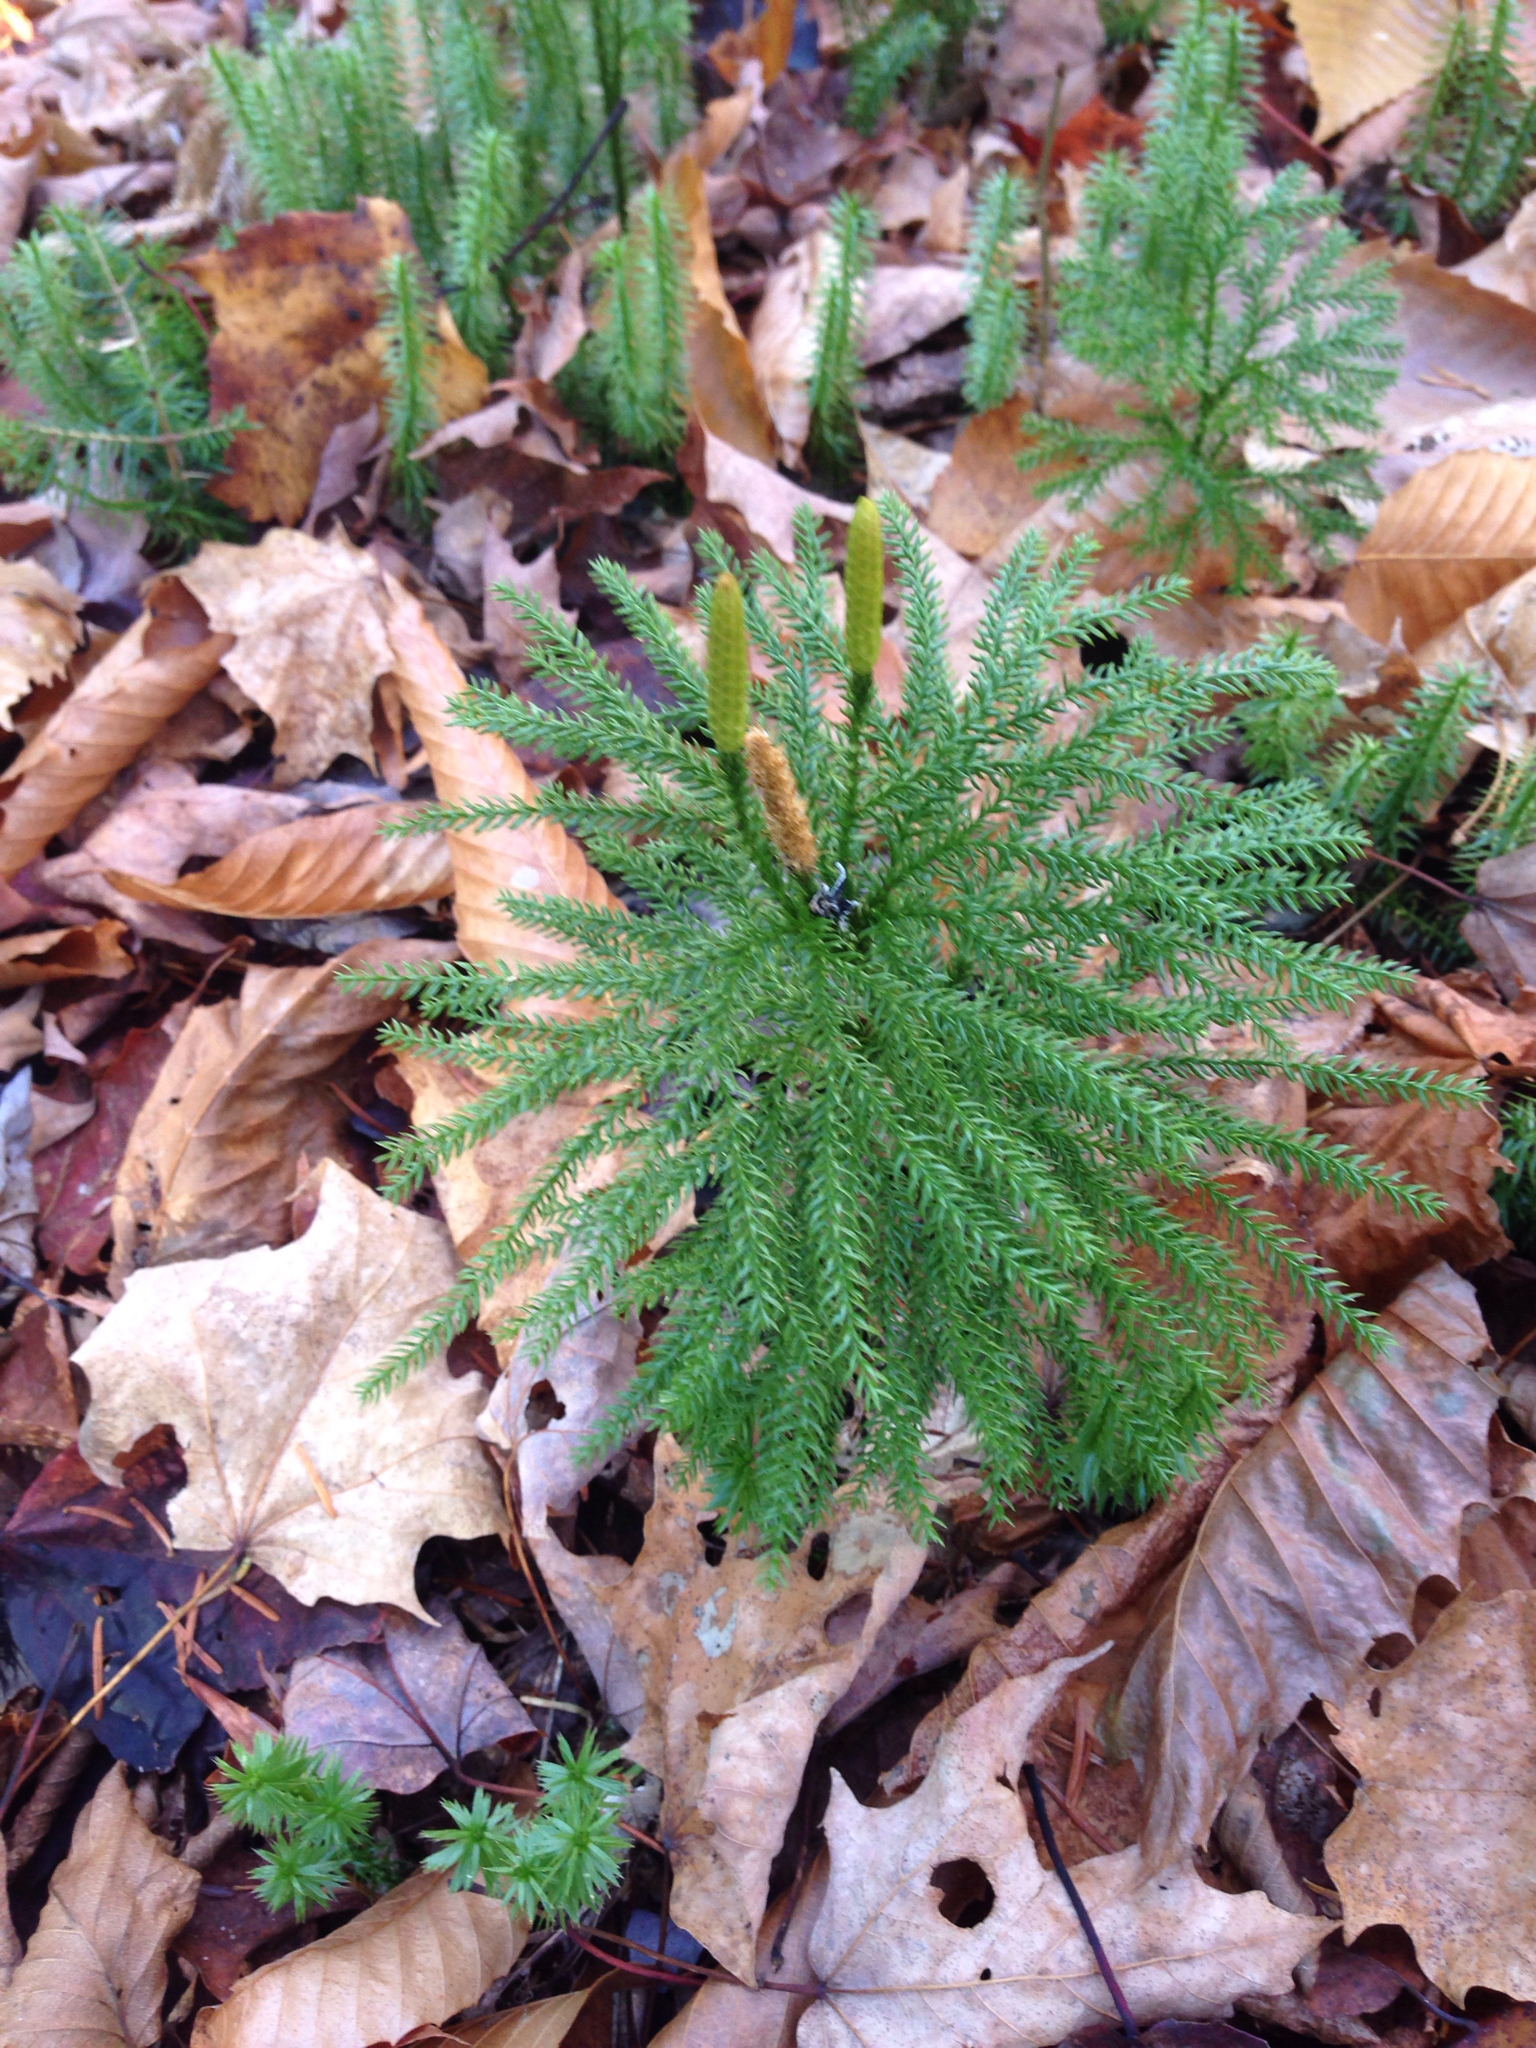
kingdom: Plantae
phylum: Tracheophyta
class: Lycopodiopsida
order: Lycopodiales
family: Lycopodiaceae
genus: Dendrolycopodium
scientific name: Dendrolycopodium obscurum
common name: Common ground-pine
